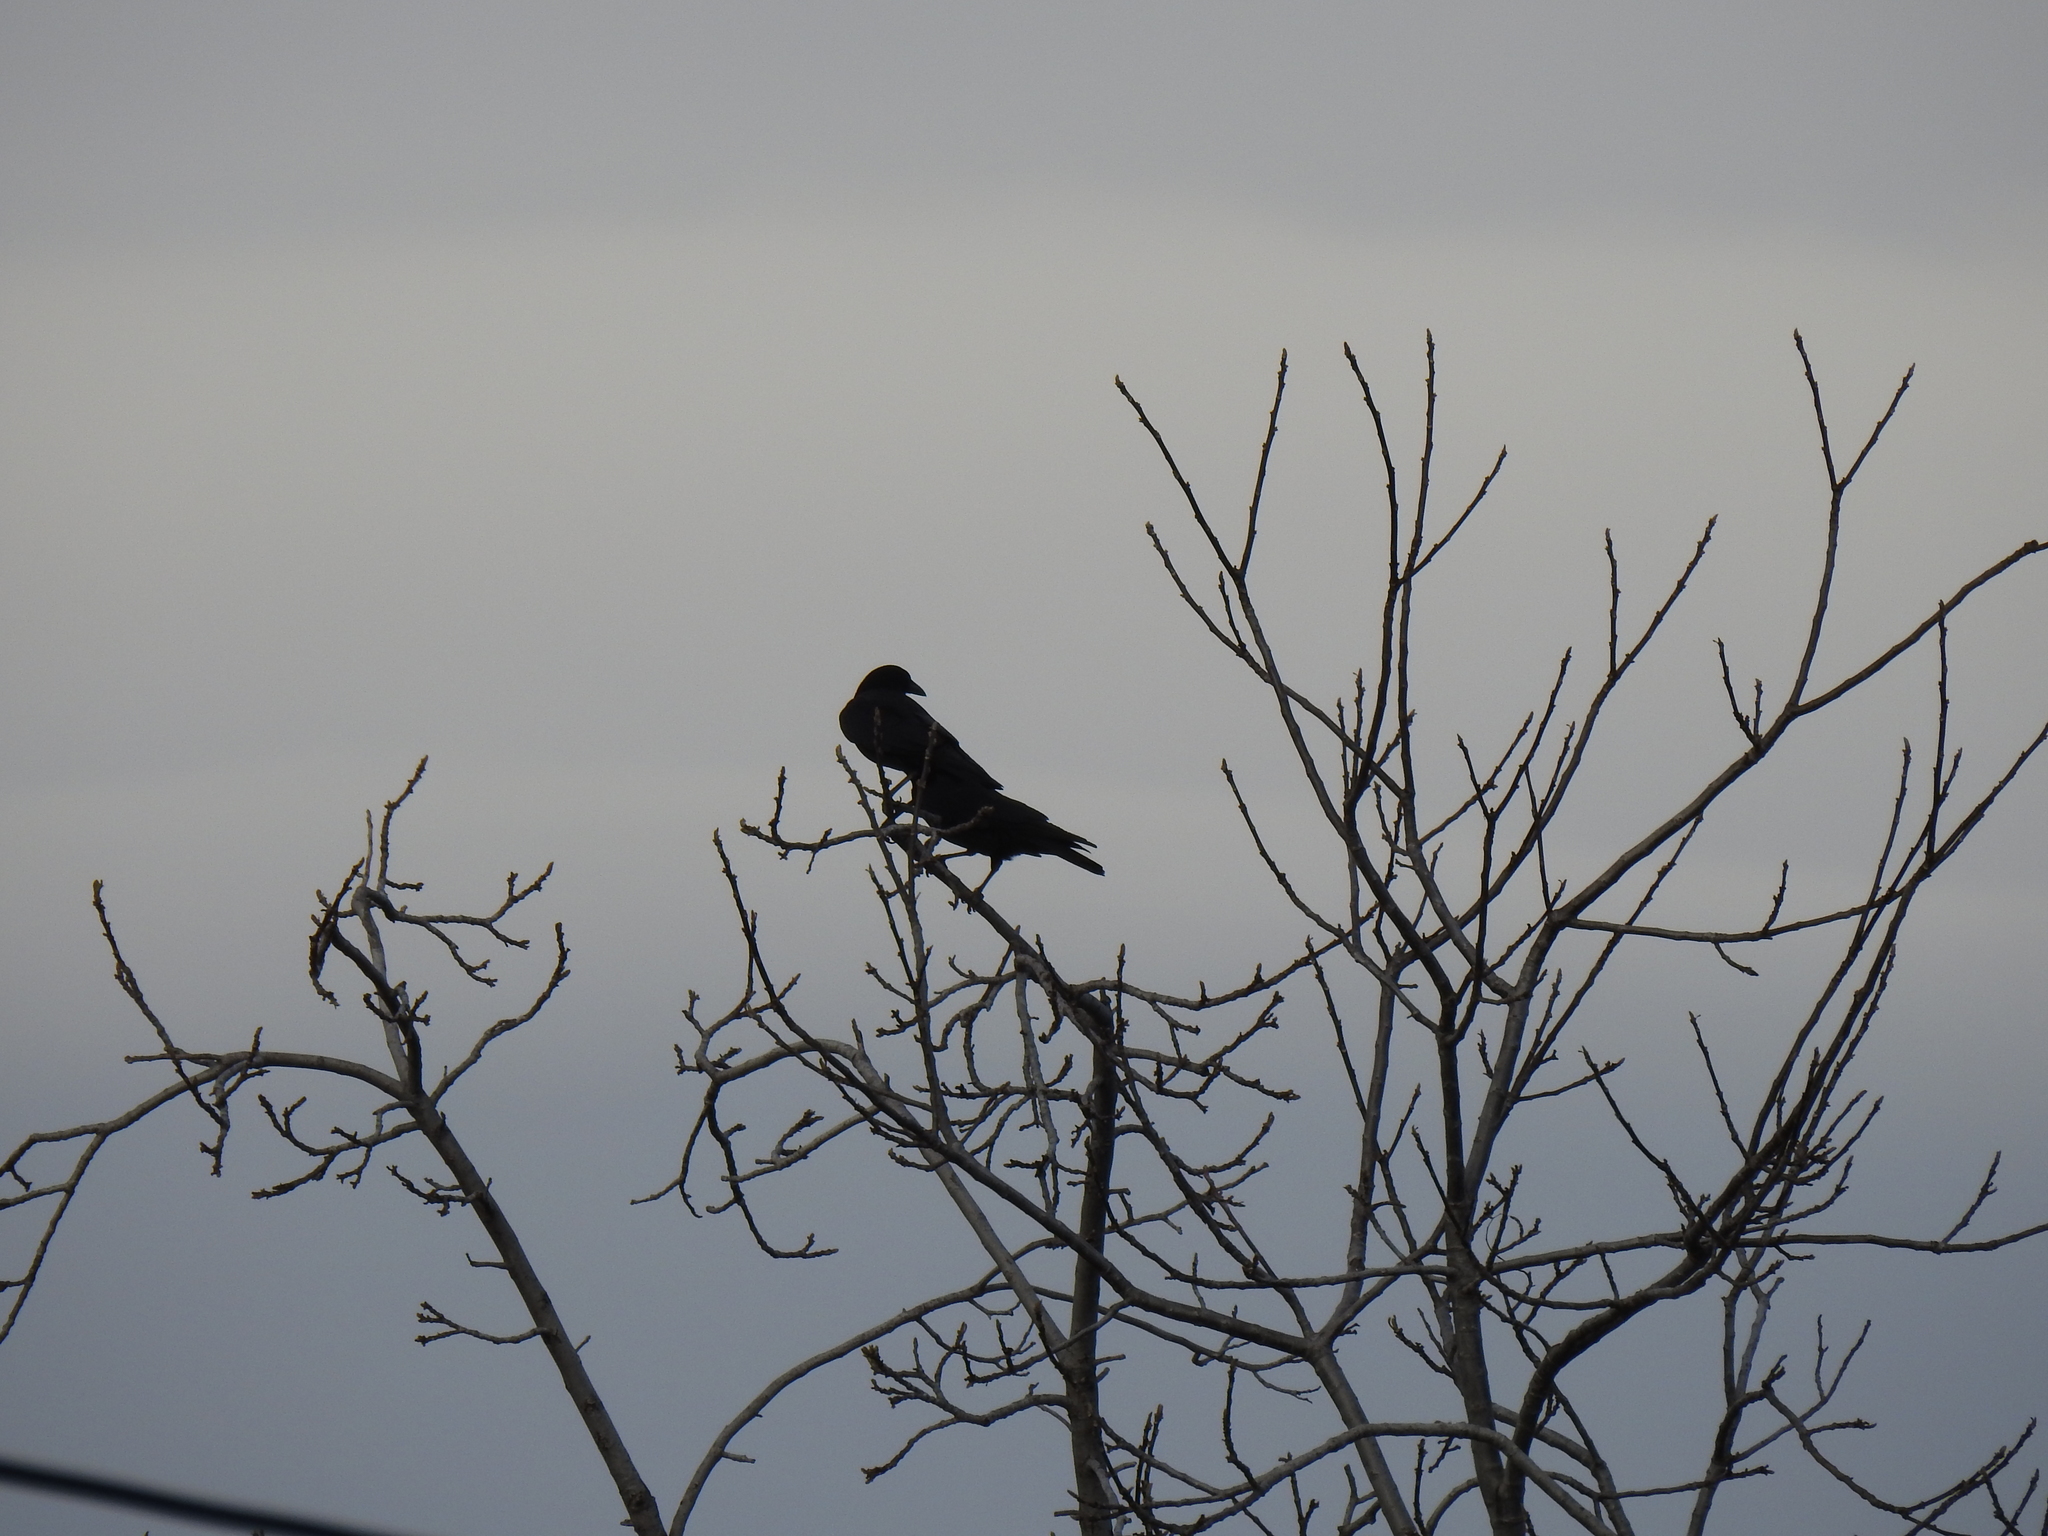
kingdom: Animalia
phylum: Chordata
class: Aves
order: Passeriformes
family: Corvidae
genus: Corvus
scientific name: Corvus brachyrhynchos
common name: American crow
